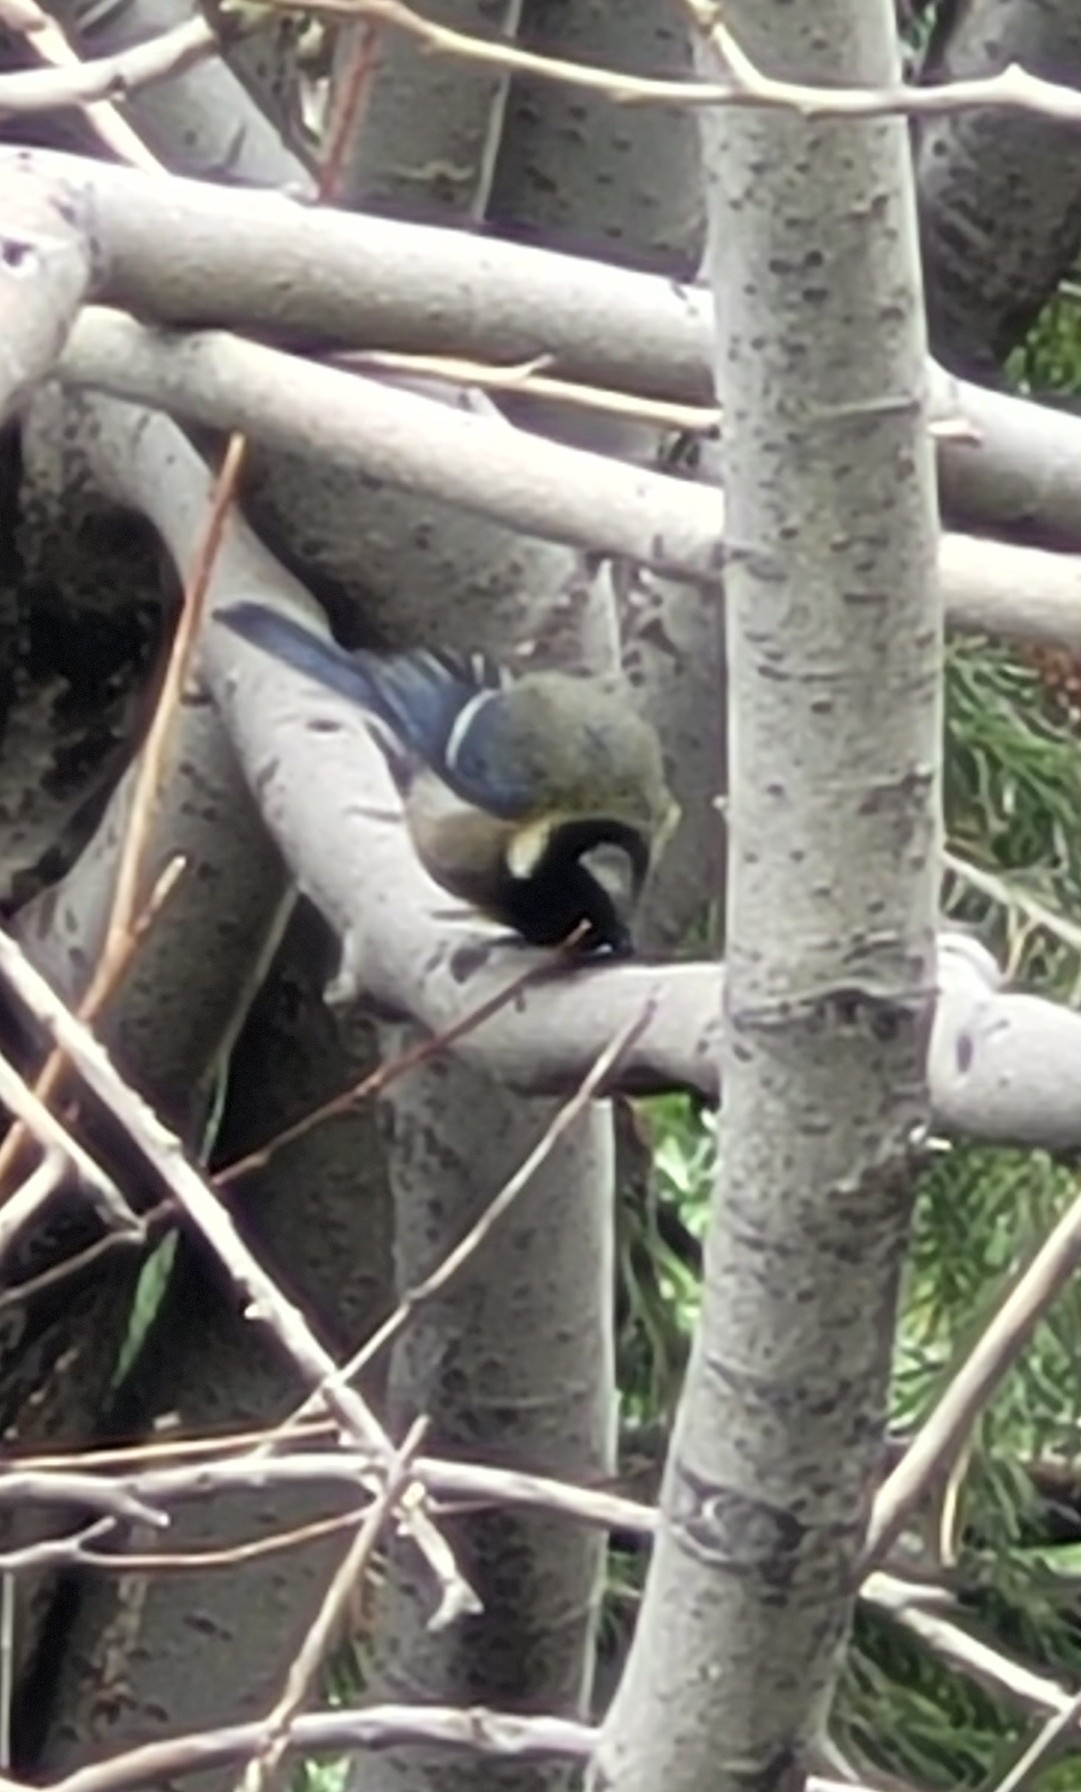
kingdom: Animalia
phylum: Chordata
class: Aves
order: Passeriformes
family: Paridae
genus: Parus
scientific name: Parus major
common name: Great tit
